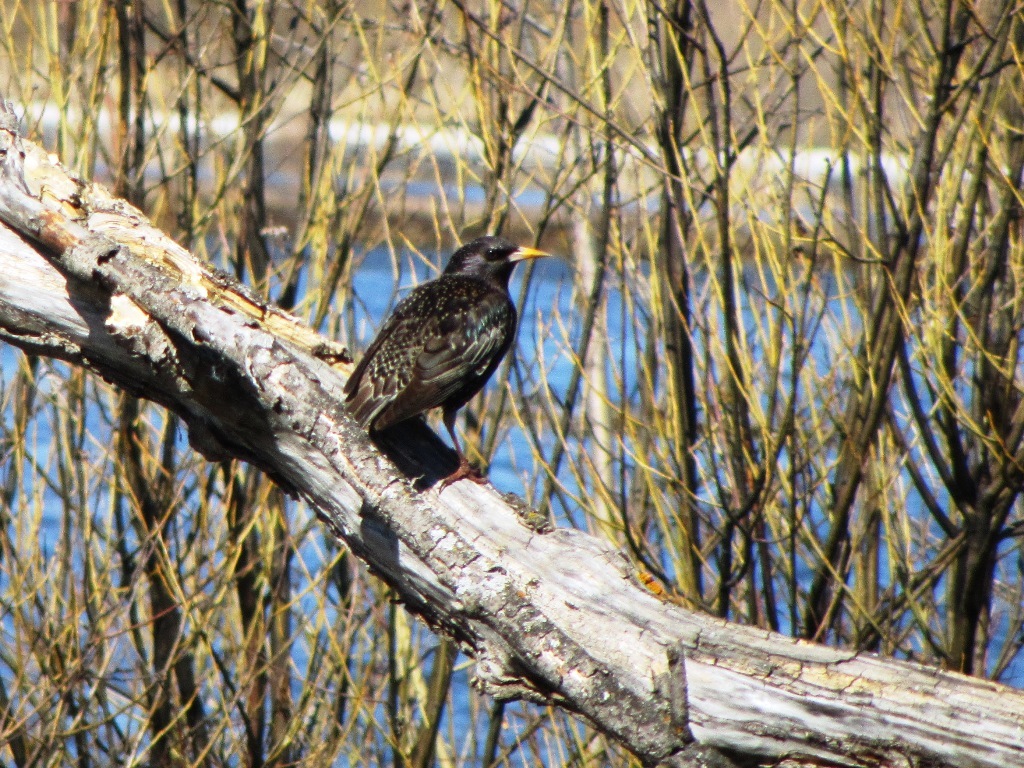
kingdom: Animalia
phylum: Chordata
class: Aves
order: Passeriformes
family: Sturnidae
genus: Sturnus
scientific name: Sturnus vulgaris
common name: Common starling
